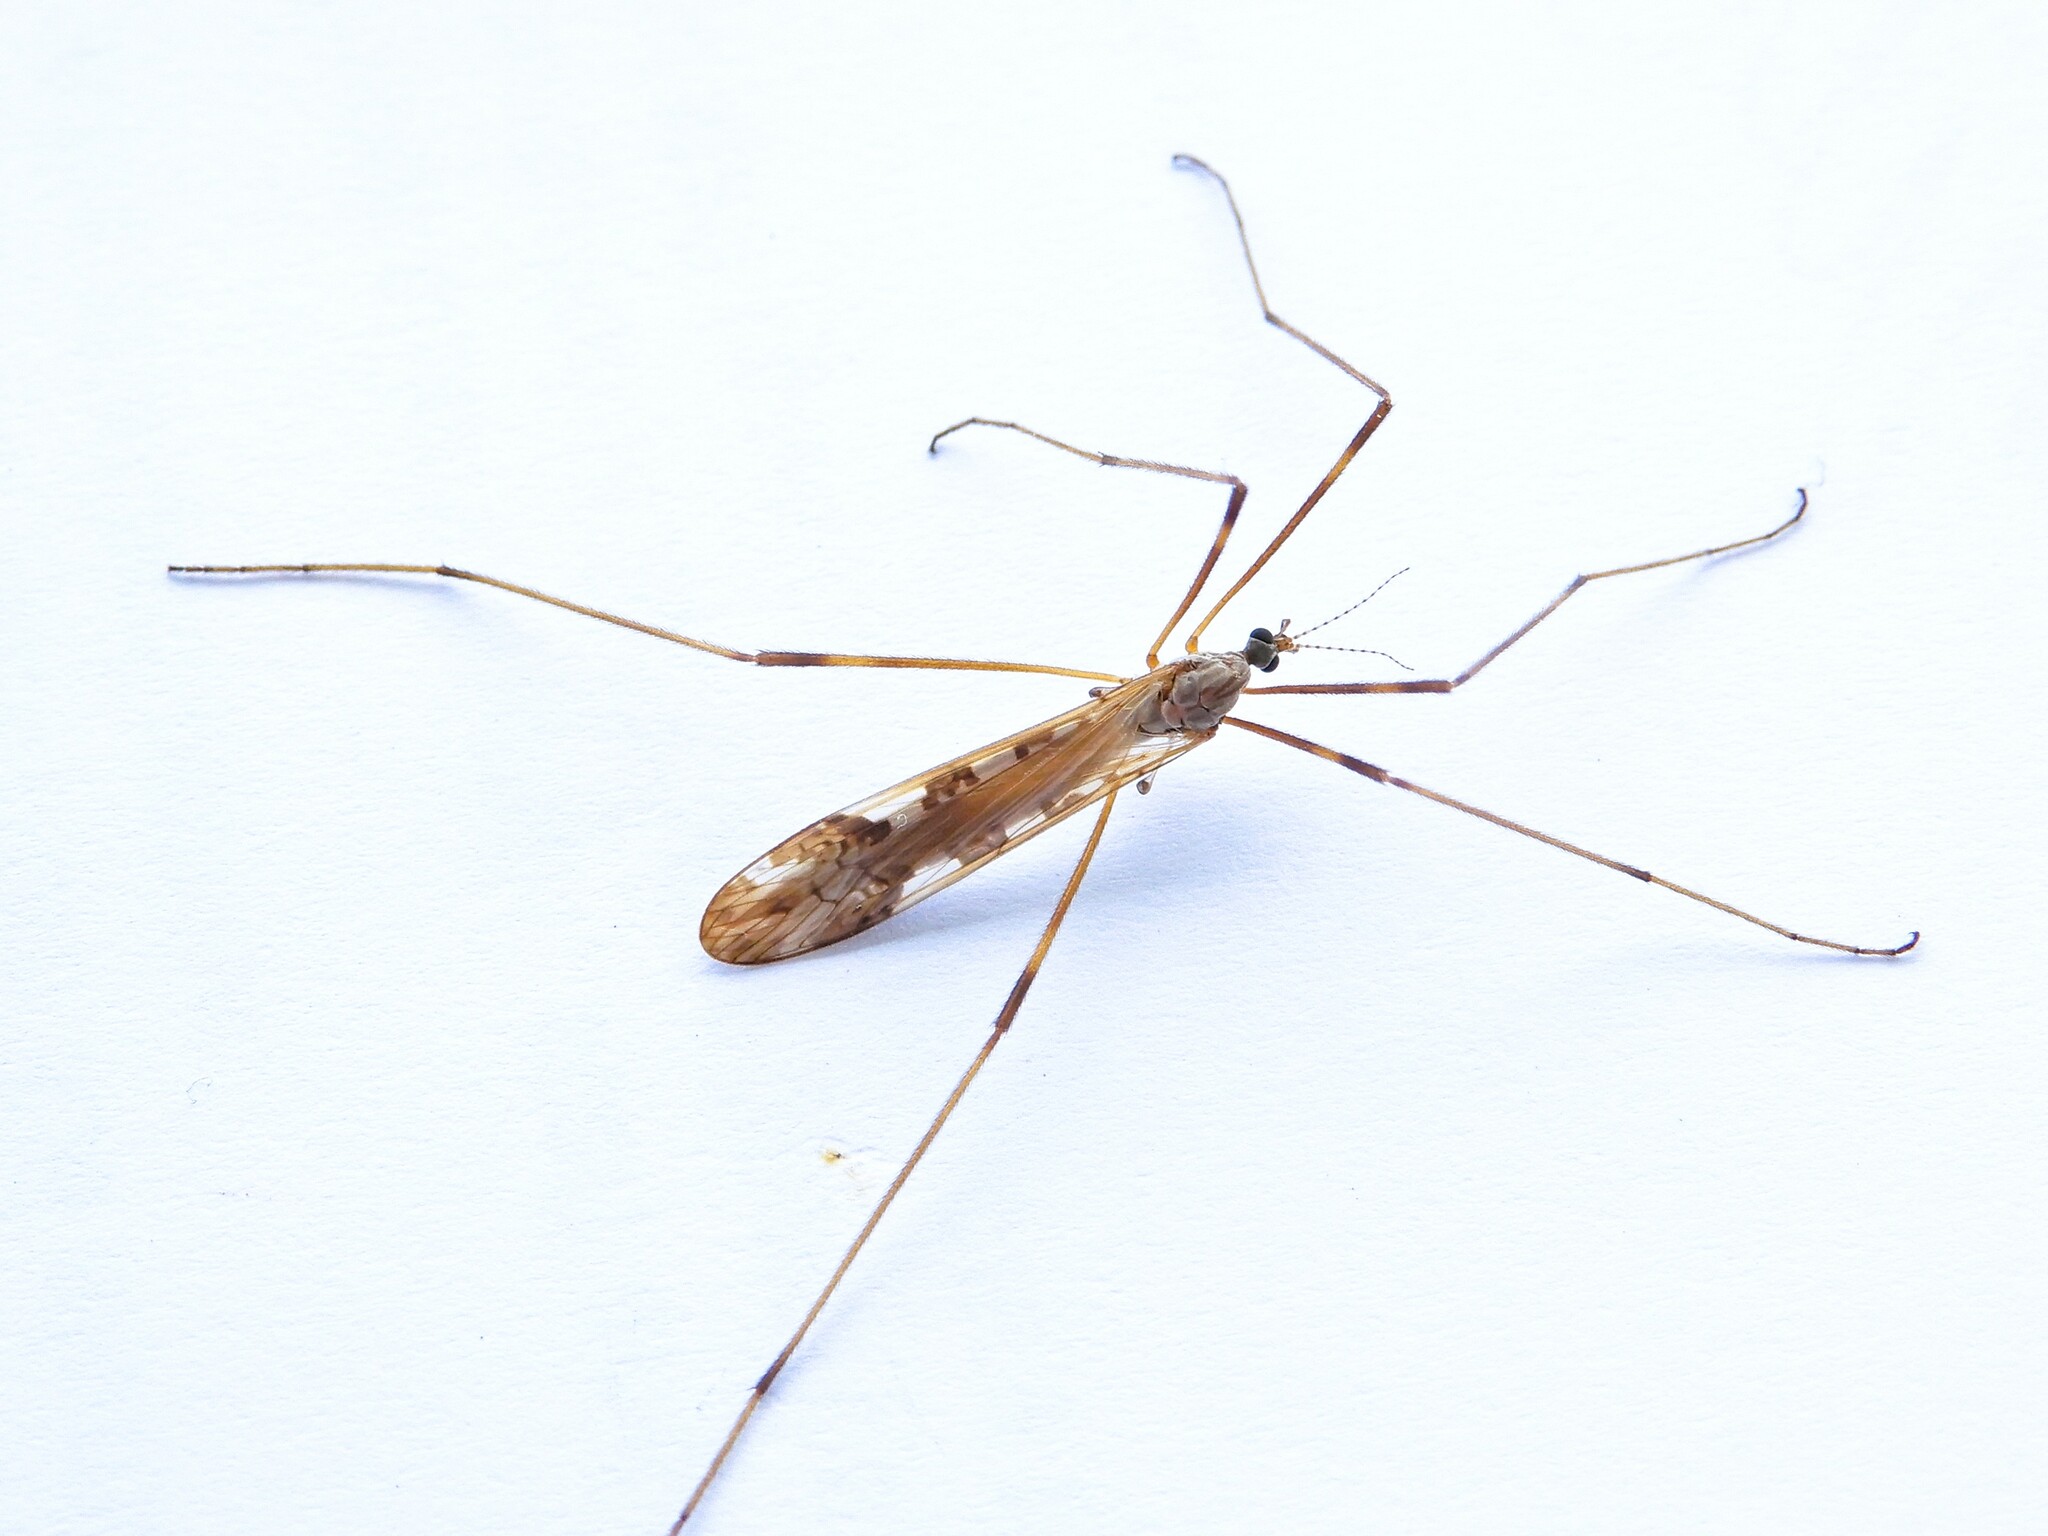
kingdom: Animalia
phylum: Arthropoda
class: Insecta
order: Diptera
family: Limoniidae
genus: Paralimnophila
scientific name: Paralimnophila skusei
